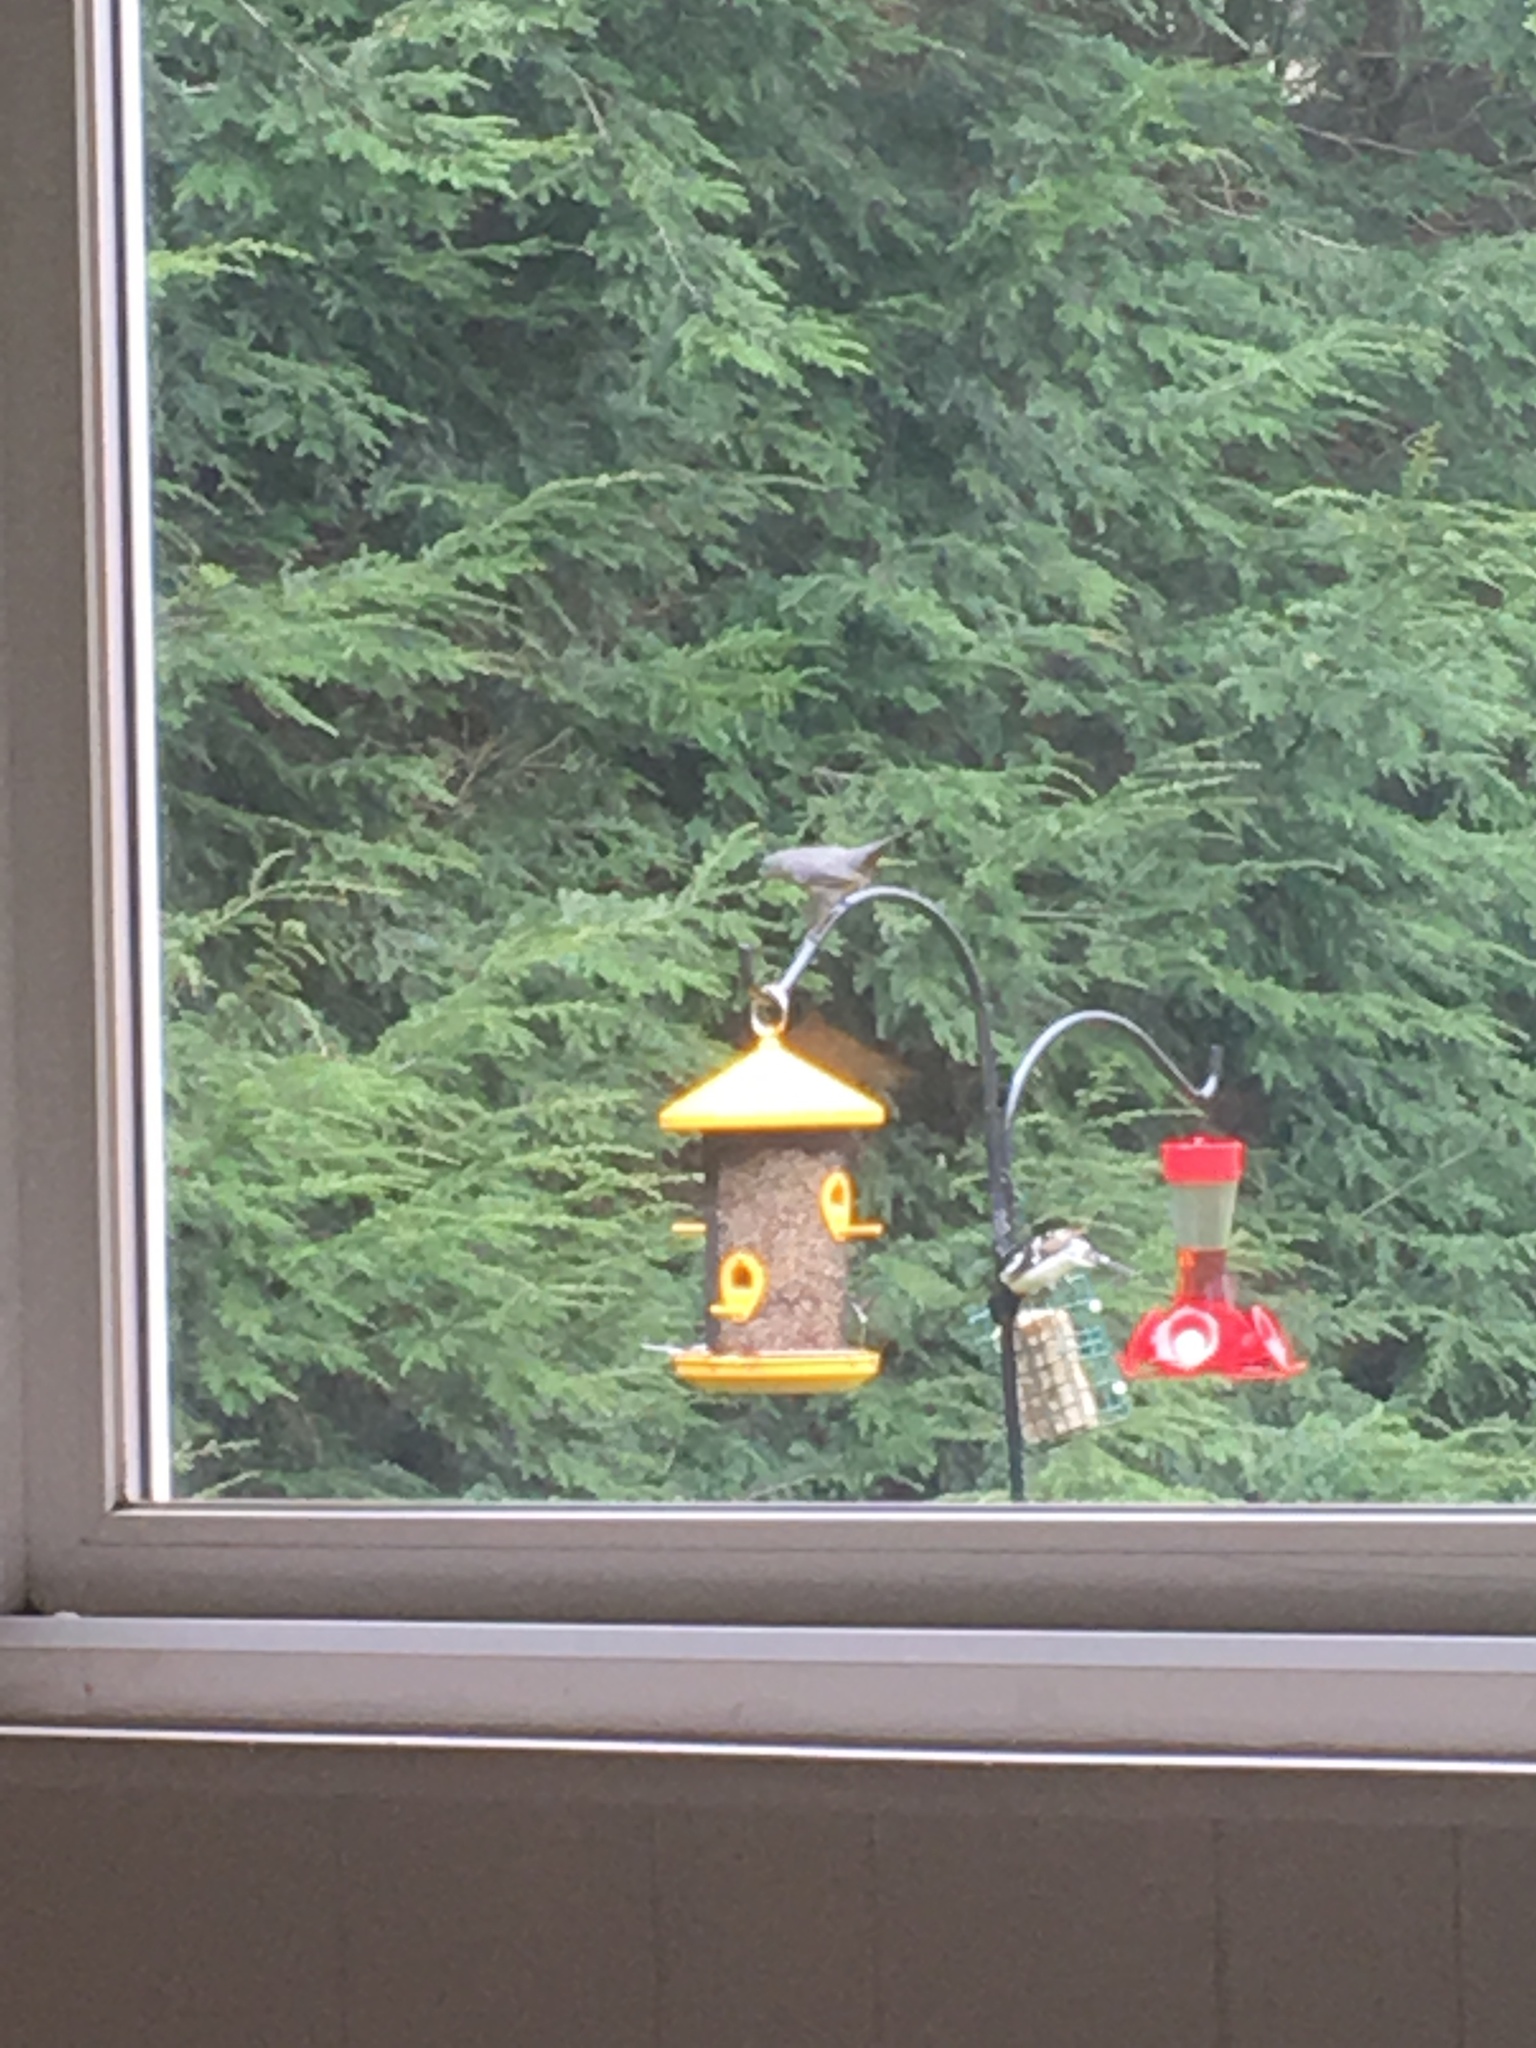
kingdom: Animalia
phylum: Chordata
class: Aves
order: Passeriformes
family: Mimidae
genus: Dumetella
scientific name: Dumetella carolinensis
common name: Gray catbird
